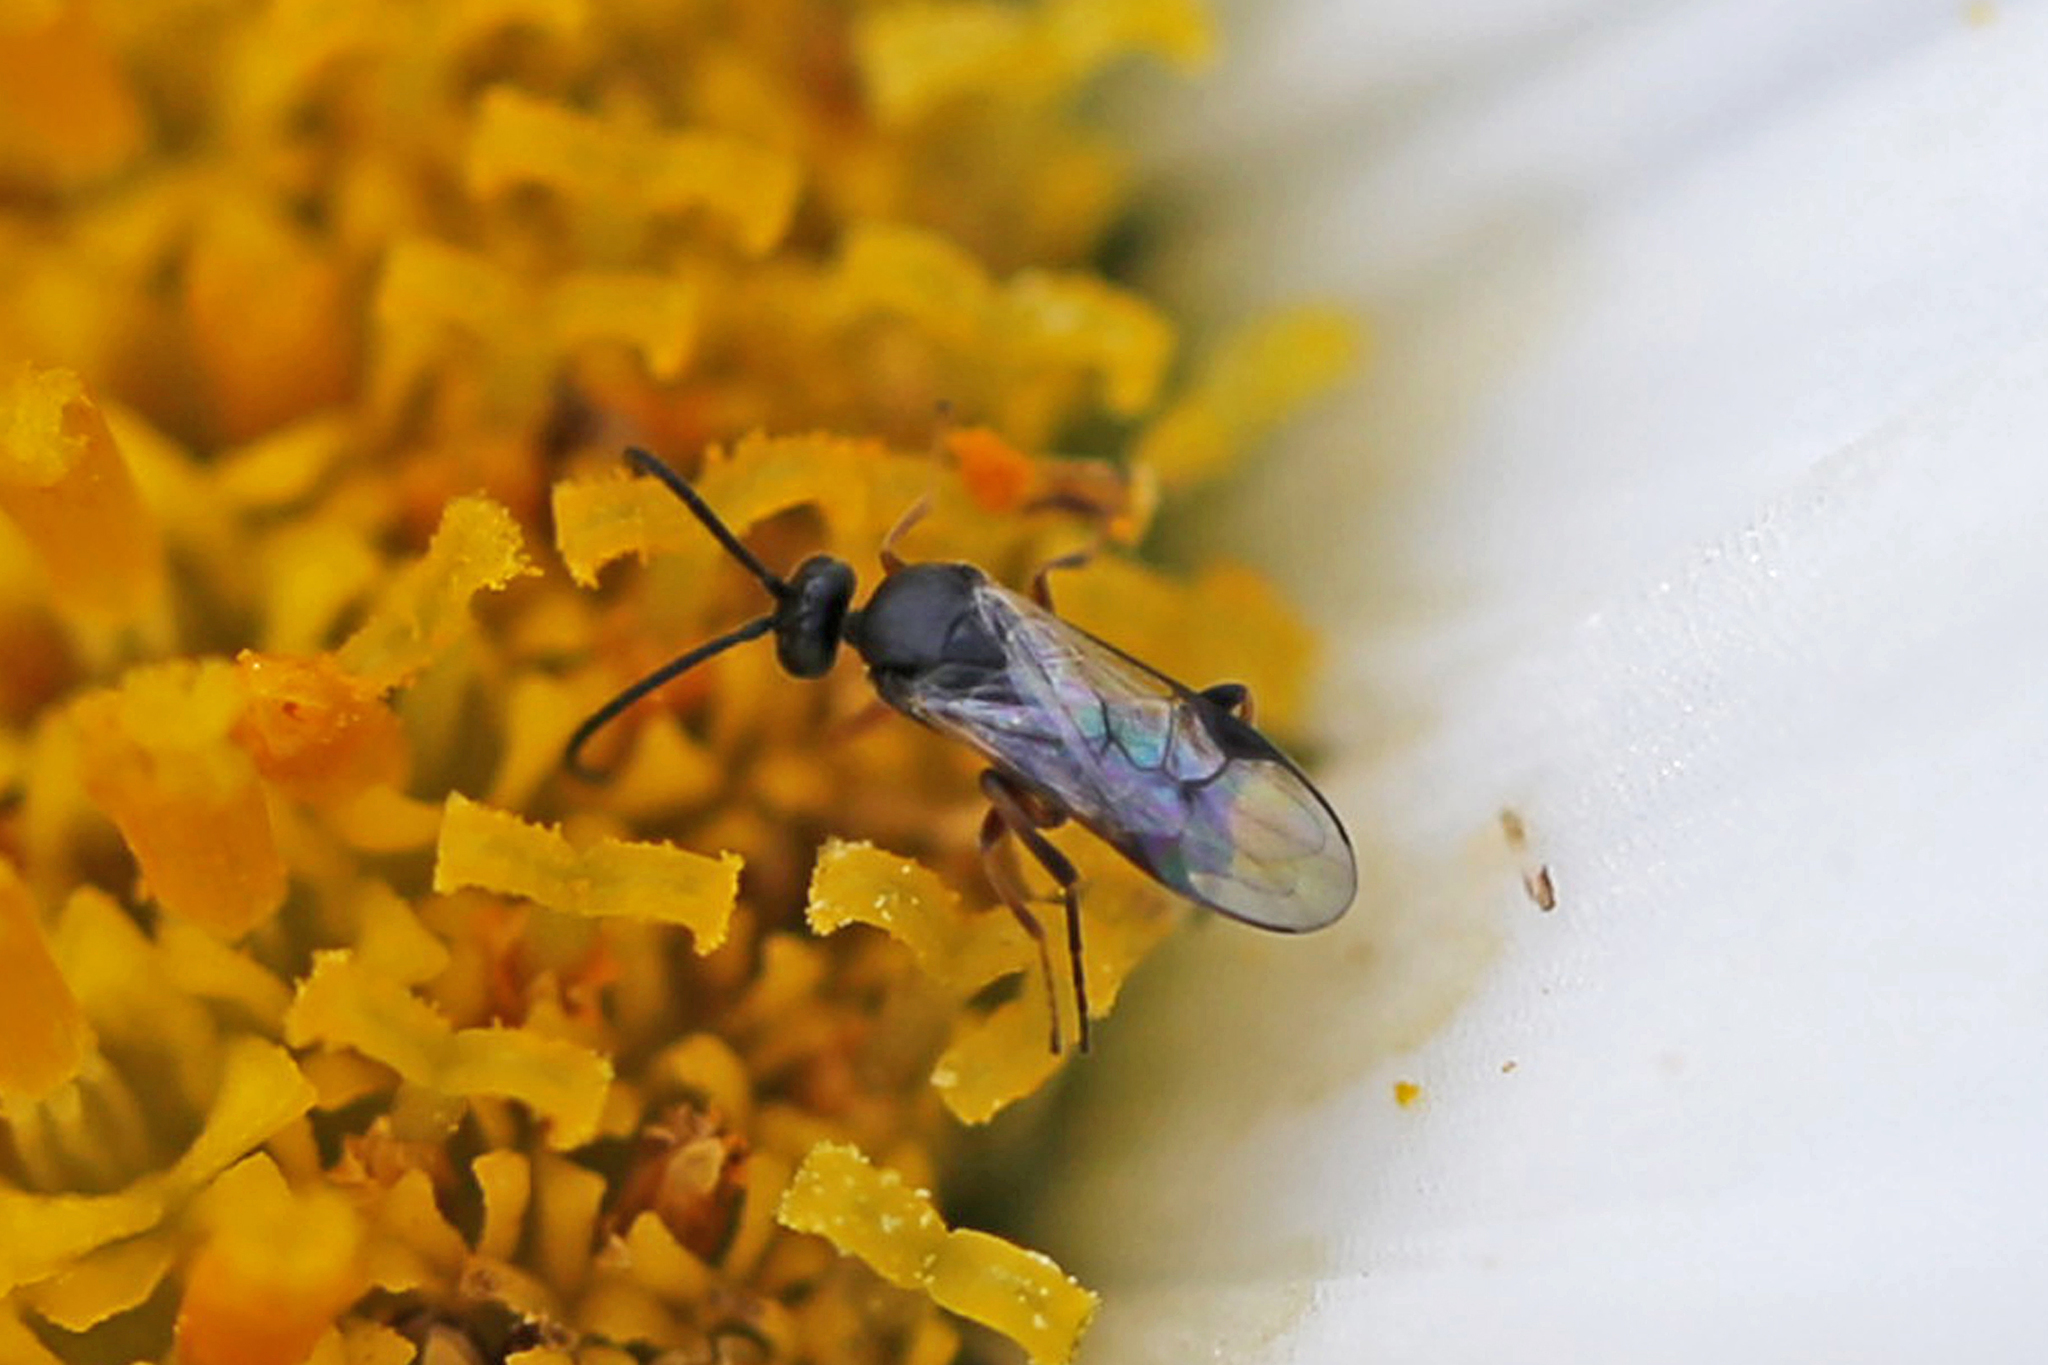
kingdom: Animalia
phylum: Arthropoda
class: Insecta
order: Hymenoptera
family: Braconidae
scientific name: Braconidae
